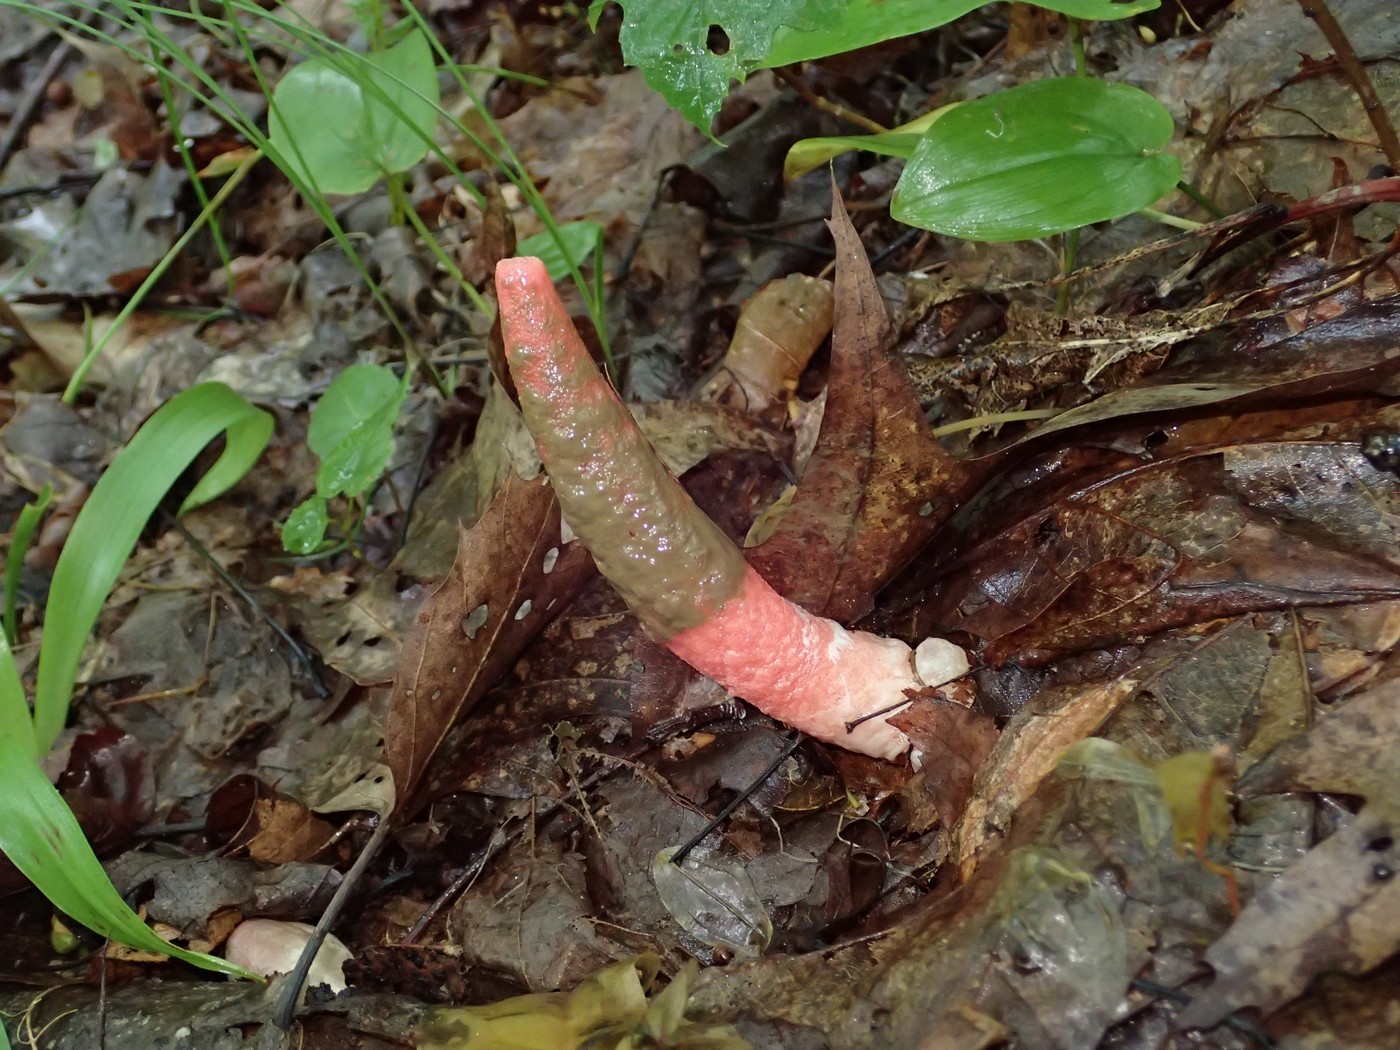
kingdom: Fungi
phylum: Basidiomycota
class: Agaricomycetes
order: Phallales
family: Phallaceae
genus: Mutinus
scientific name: Mutinus elegans
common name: Devil's dipstick
